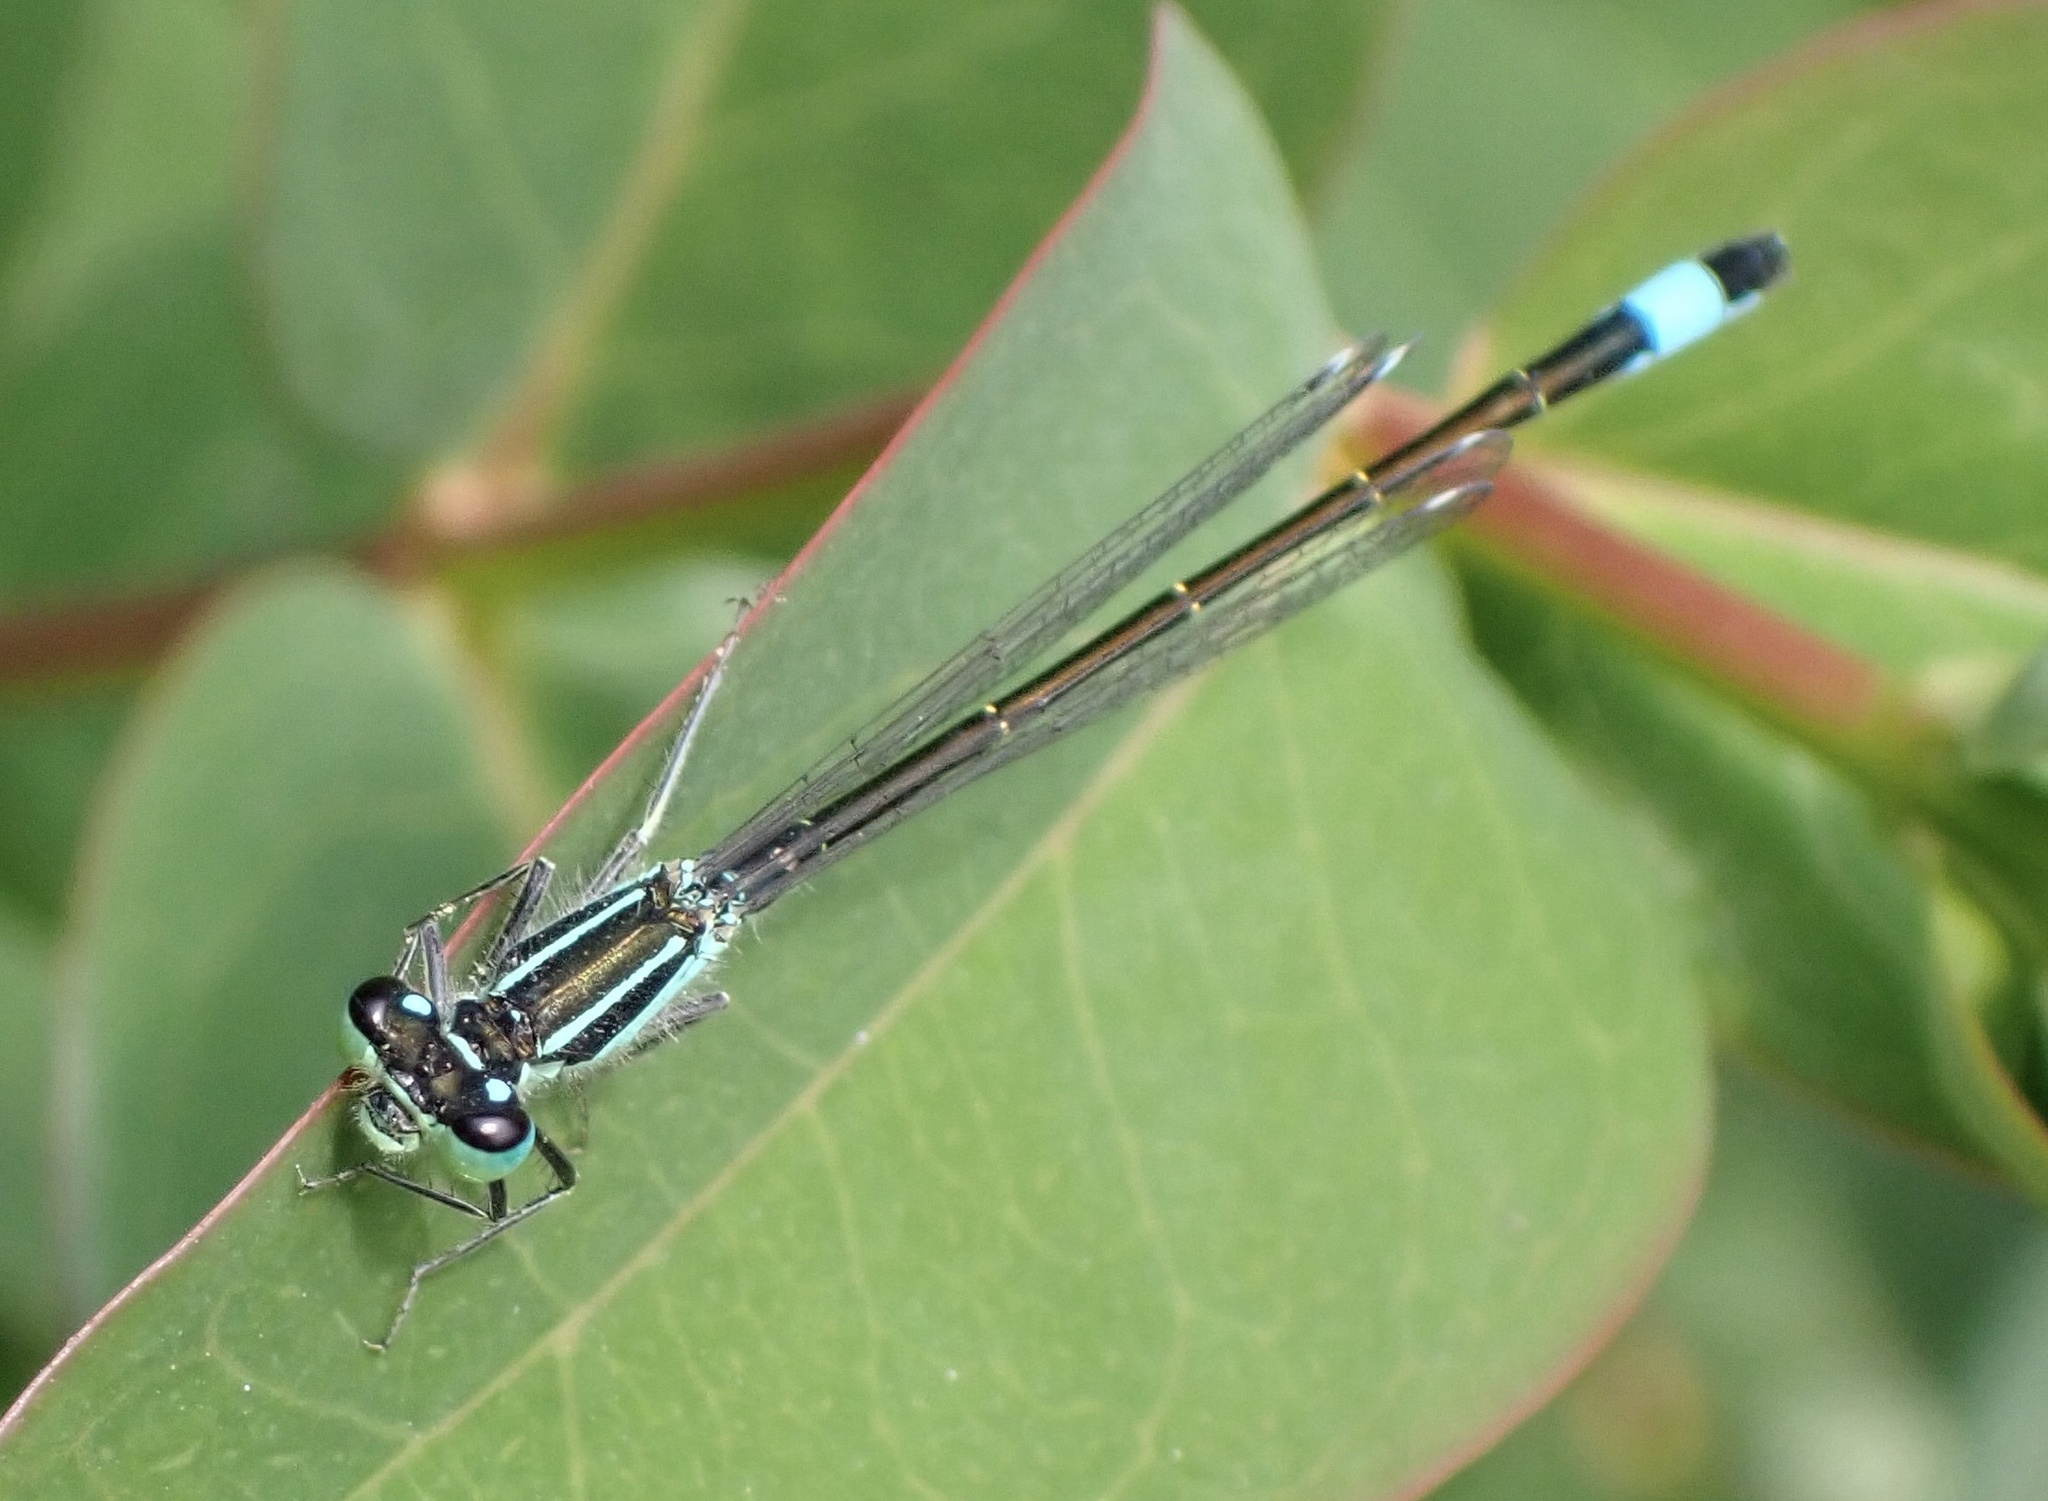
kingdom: Animalia
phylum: Arthropoda
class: Insecta
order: Odonata
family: Coenagrionidae
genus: Ischnura
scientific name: Ischnura elegans
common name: Blue-tailed damselfly
